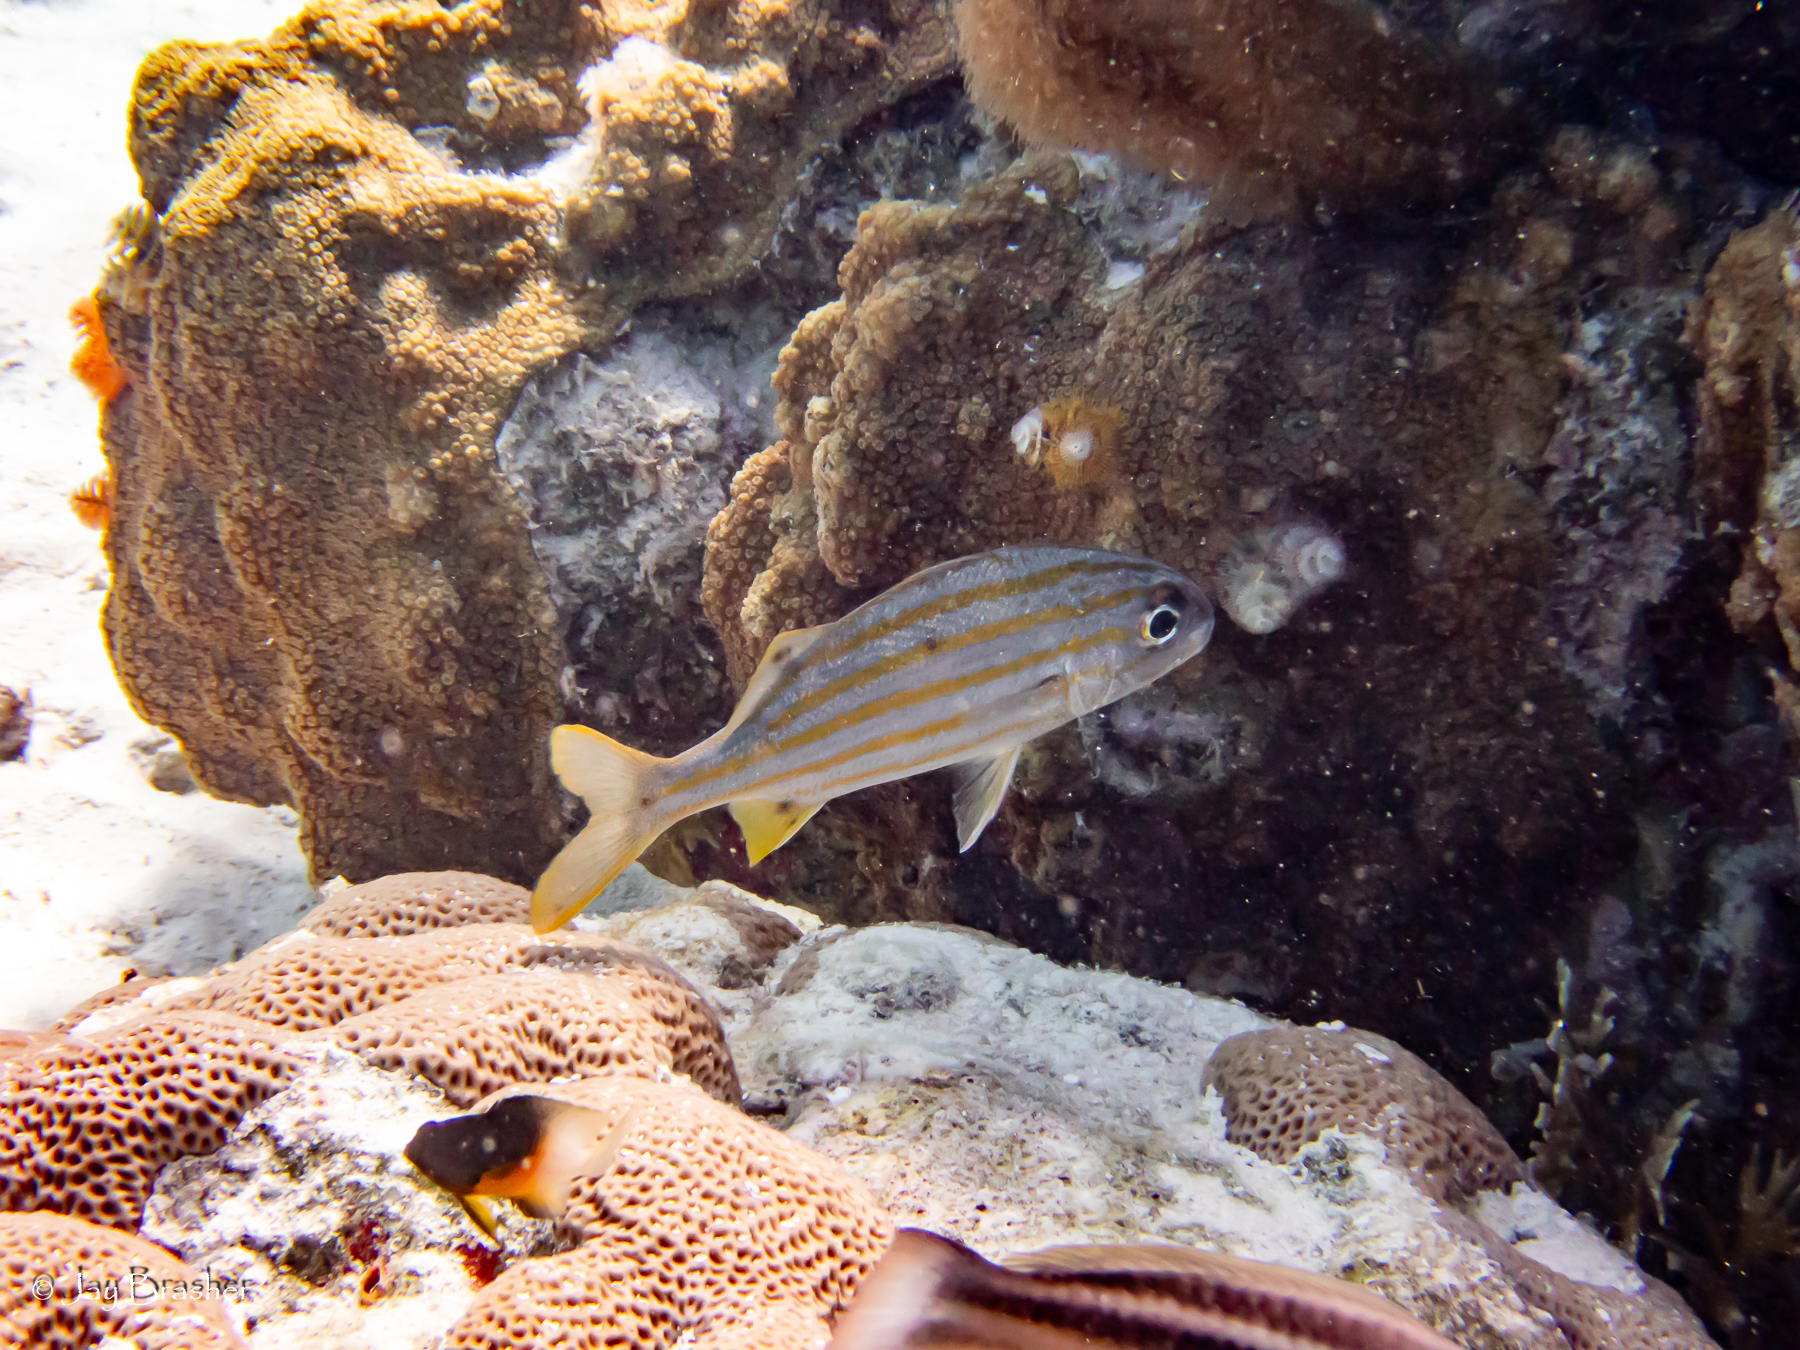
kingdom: Animalia
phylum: Chordata
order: Perciformes
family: Haemulidae
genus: Haemulon
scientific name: Haemulon chrysargyreum
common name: Smallmouth grunt
